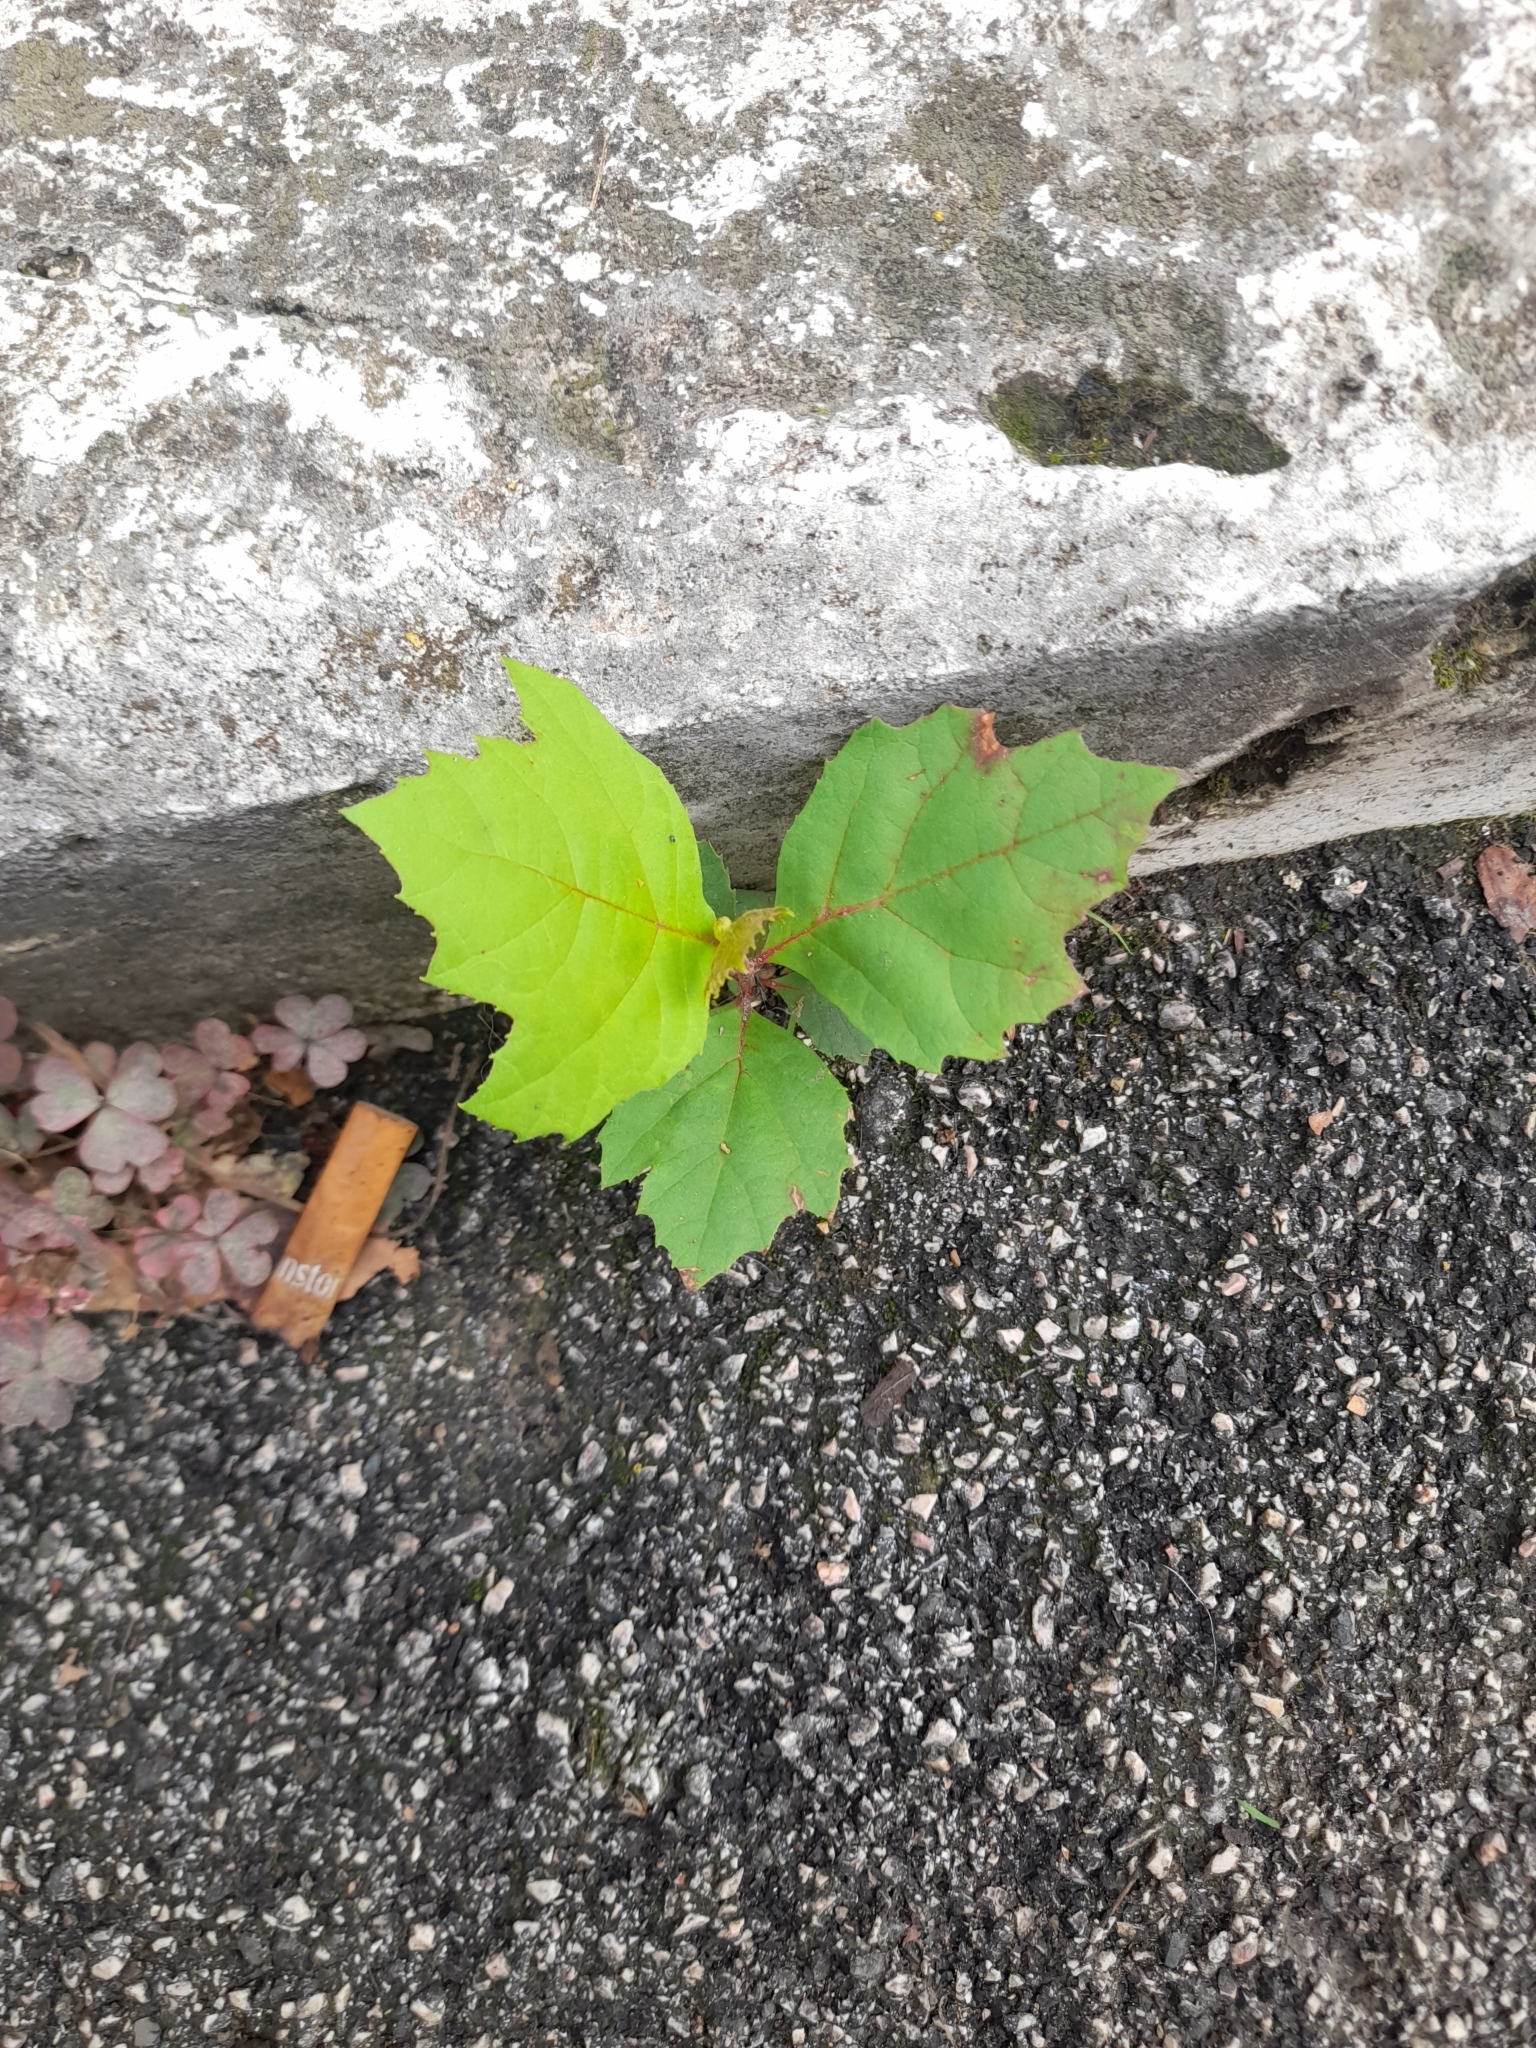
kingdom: Plantae
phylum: Tracheophyta
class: Magnoliopsida
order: Proteales
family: Platanaceae
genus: Platanus
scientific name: Platanus hispanica
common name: London plane
